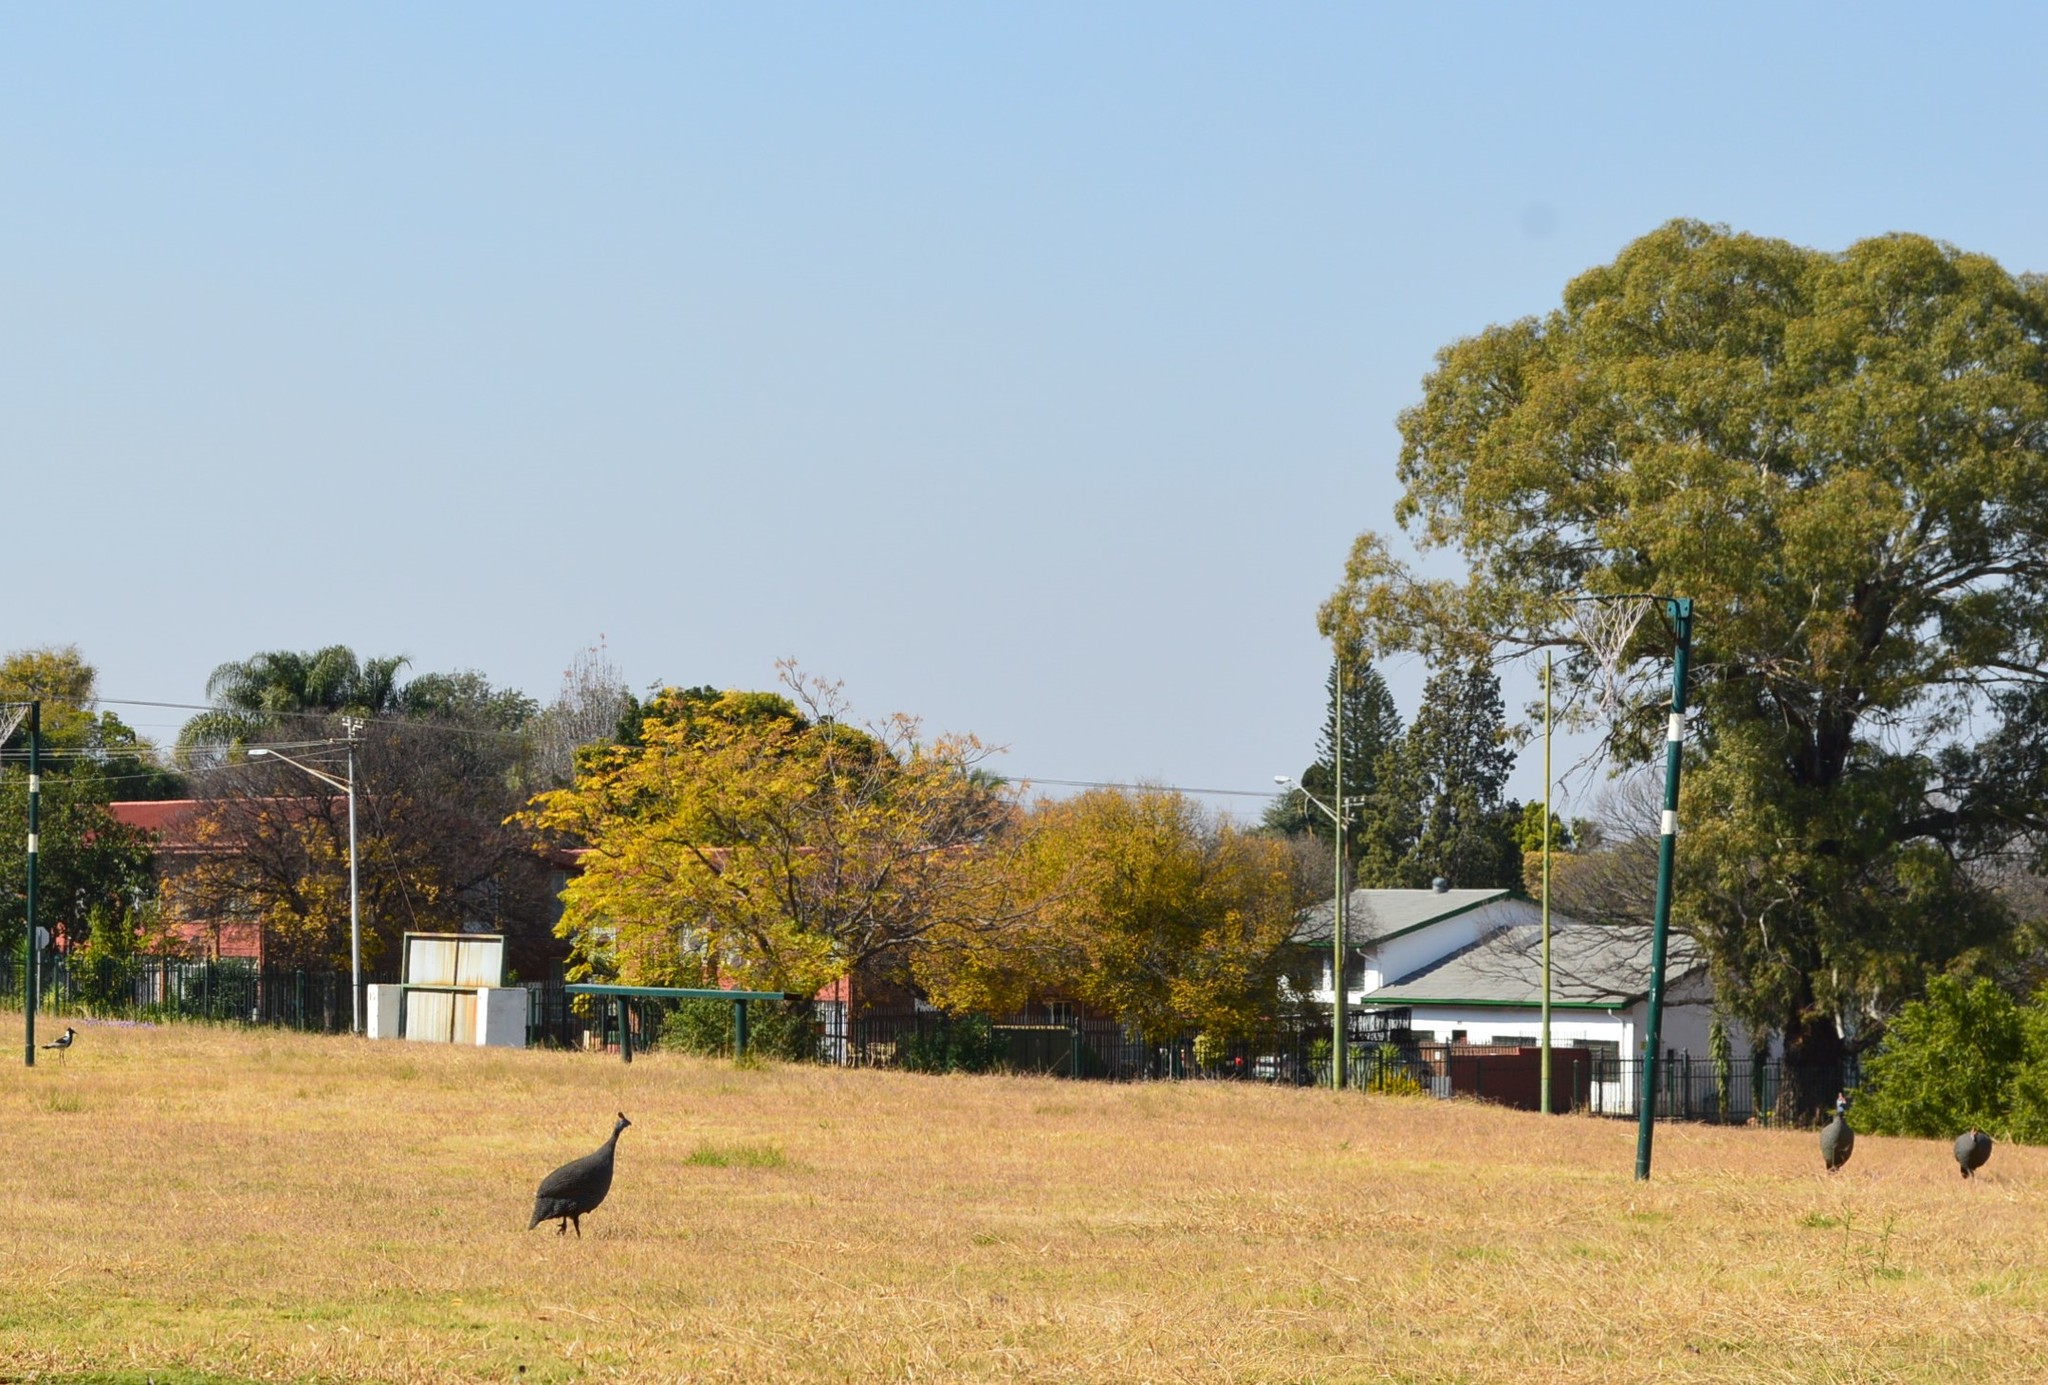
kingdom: Animalia
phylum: Chordata
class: Aves
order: Galliformes
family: Numididae
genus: Numida
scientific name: Numida meleagris
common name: Helmeted guineafowl
